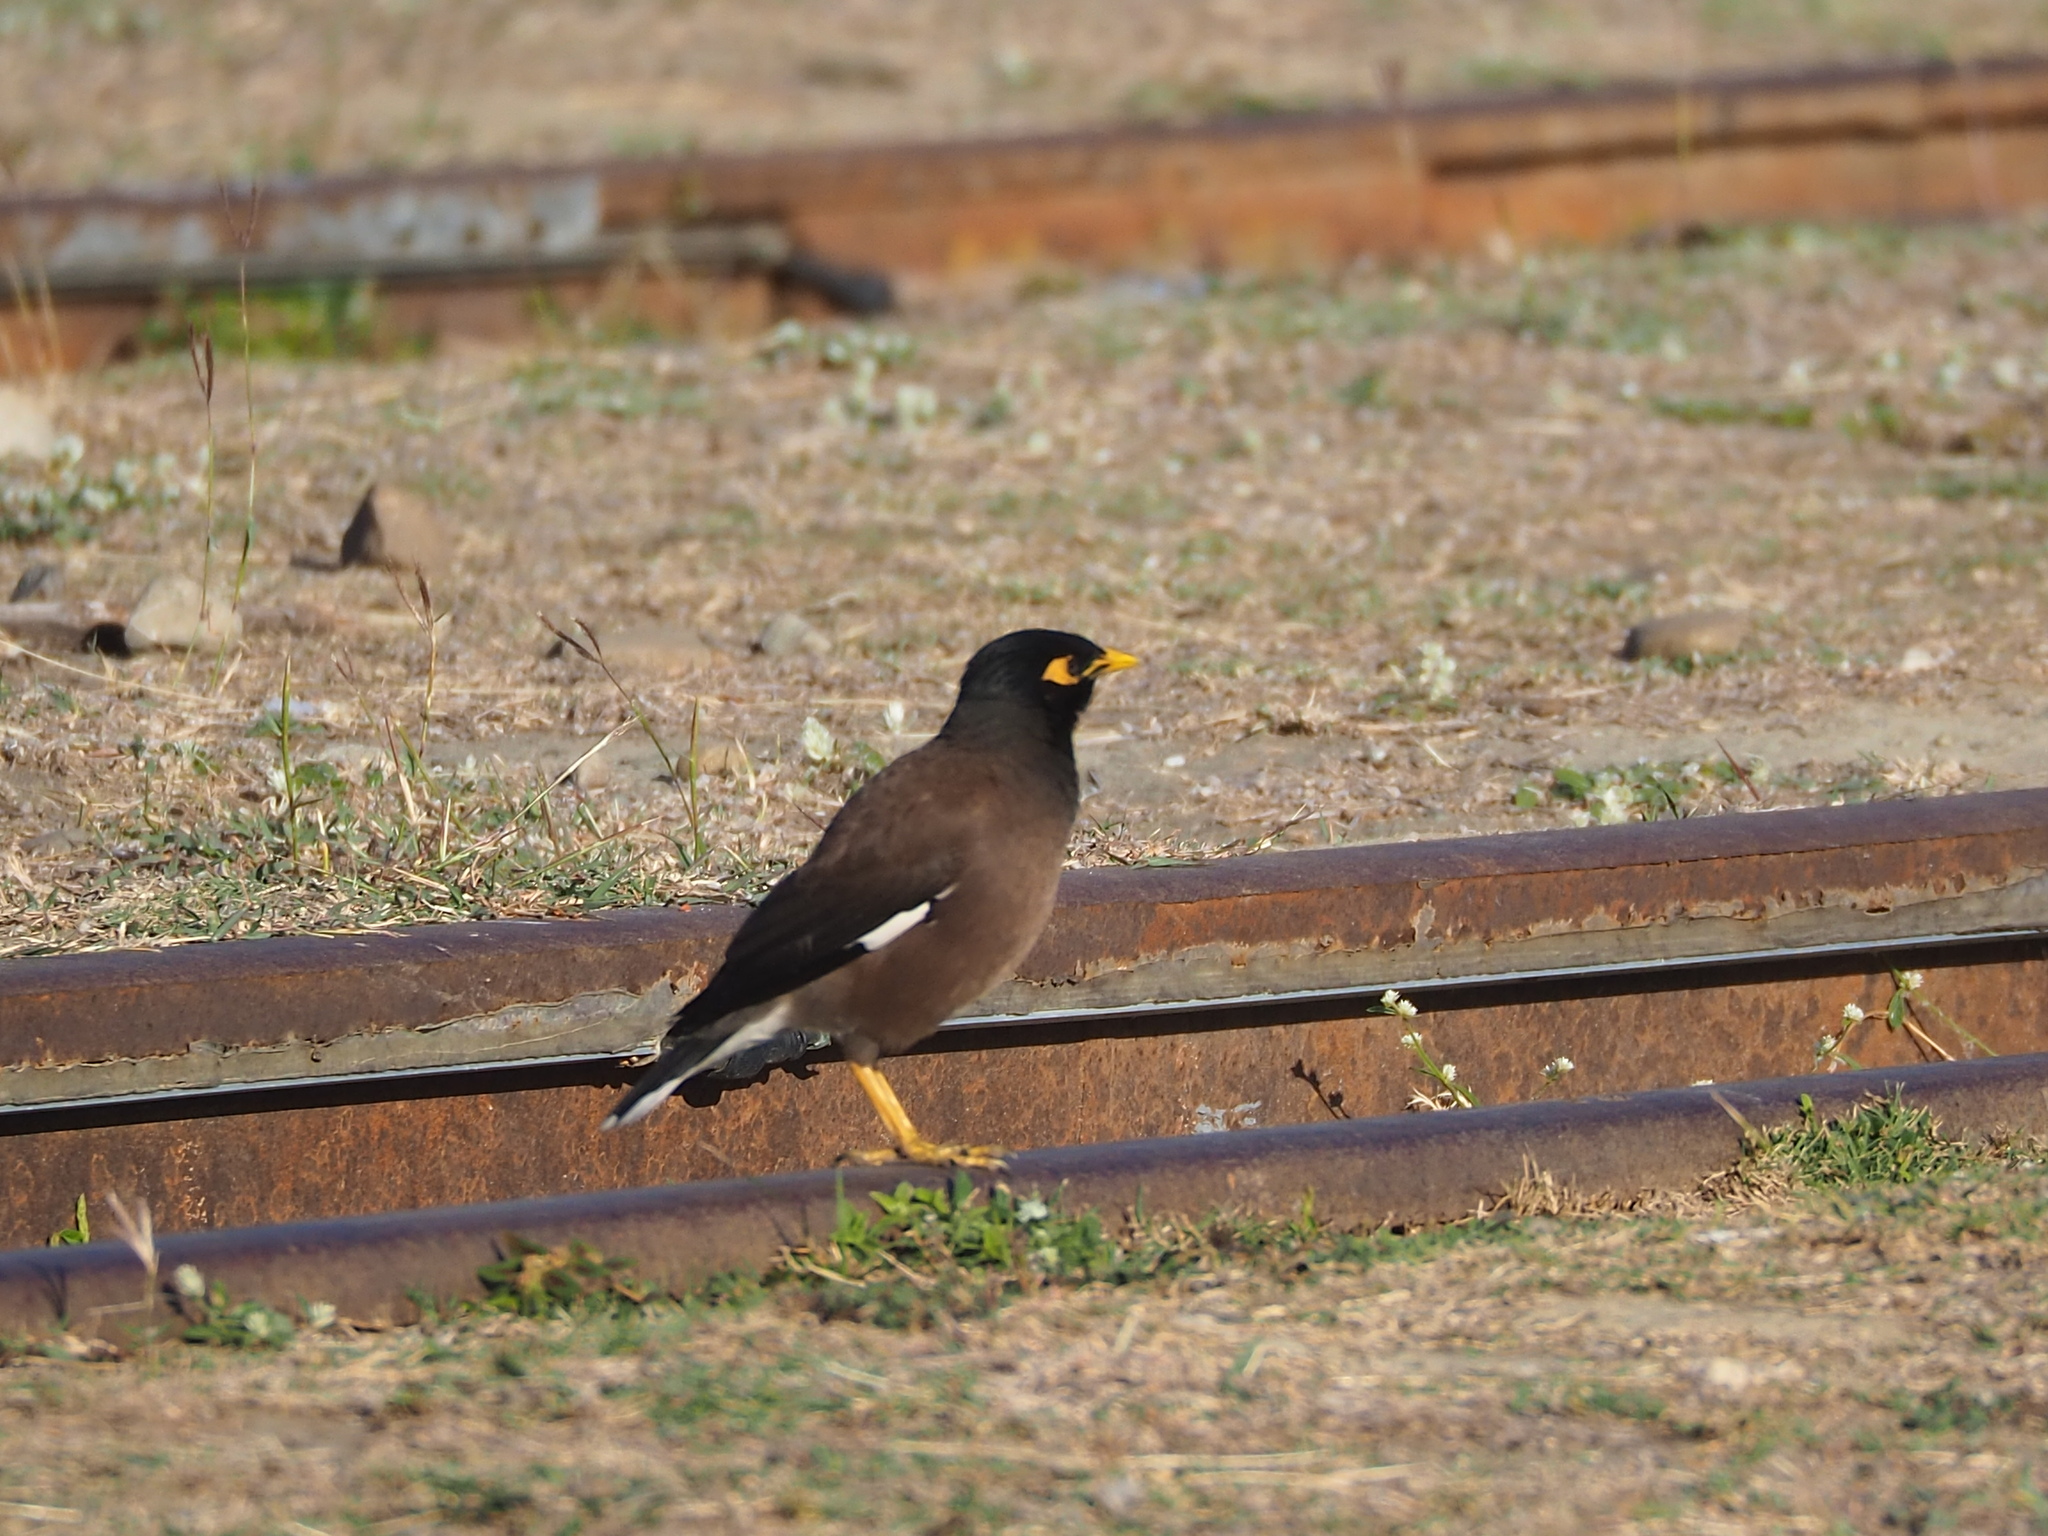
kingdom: Animalia
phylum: Chordata
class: Aves
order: Passeriformes
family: Sturnidae
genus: Acridotheres
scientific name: Acridotheres tristis
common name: Common myna
